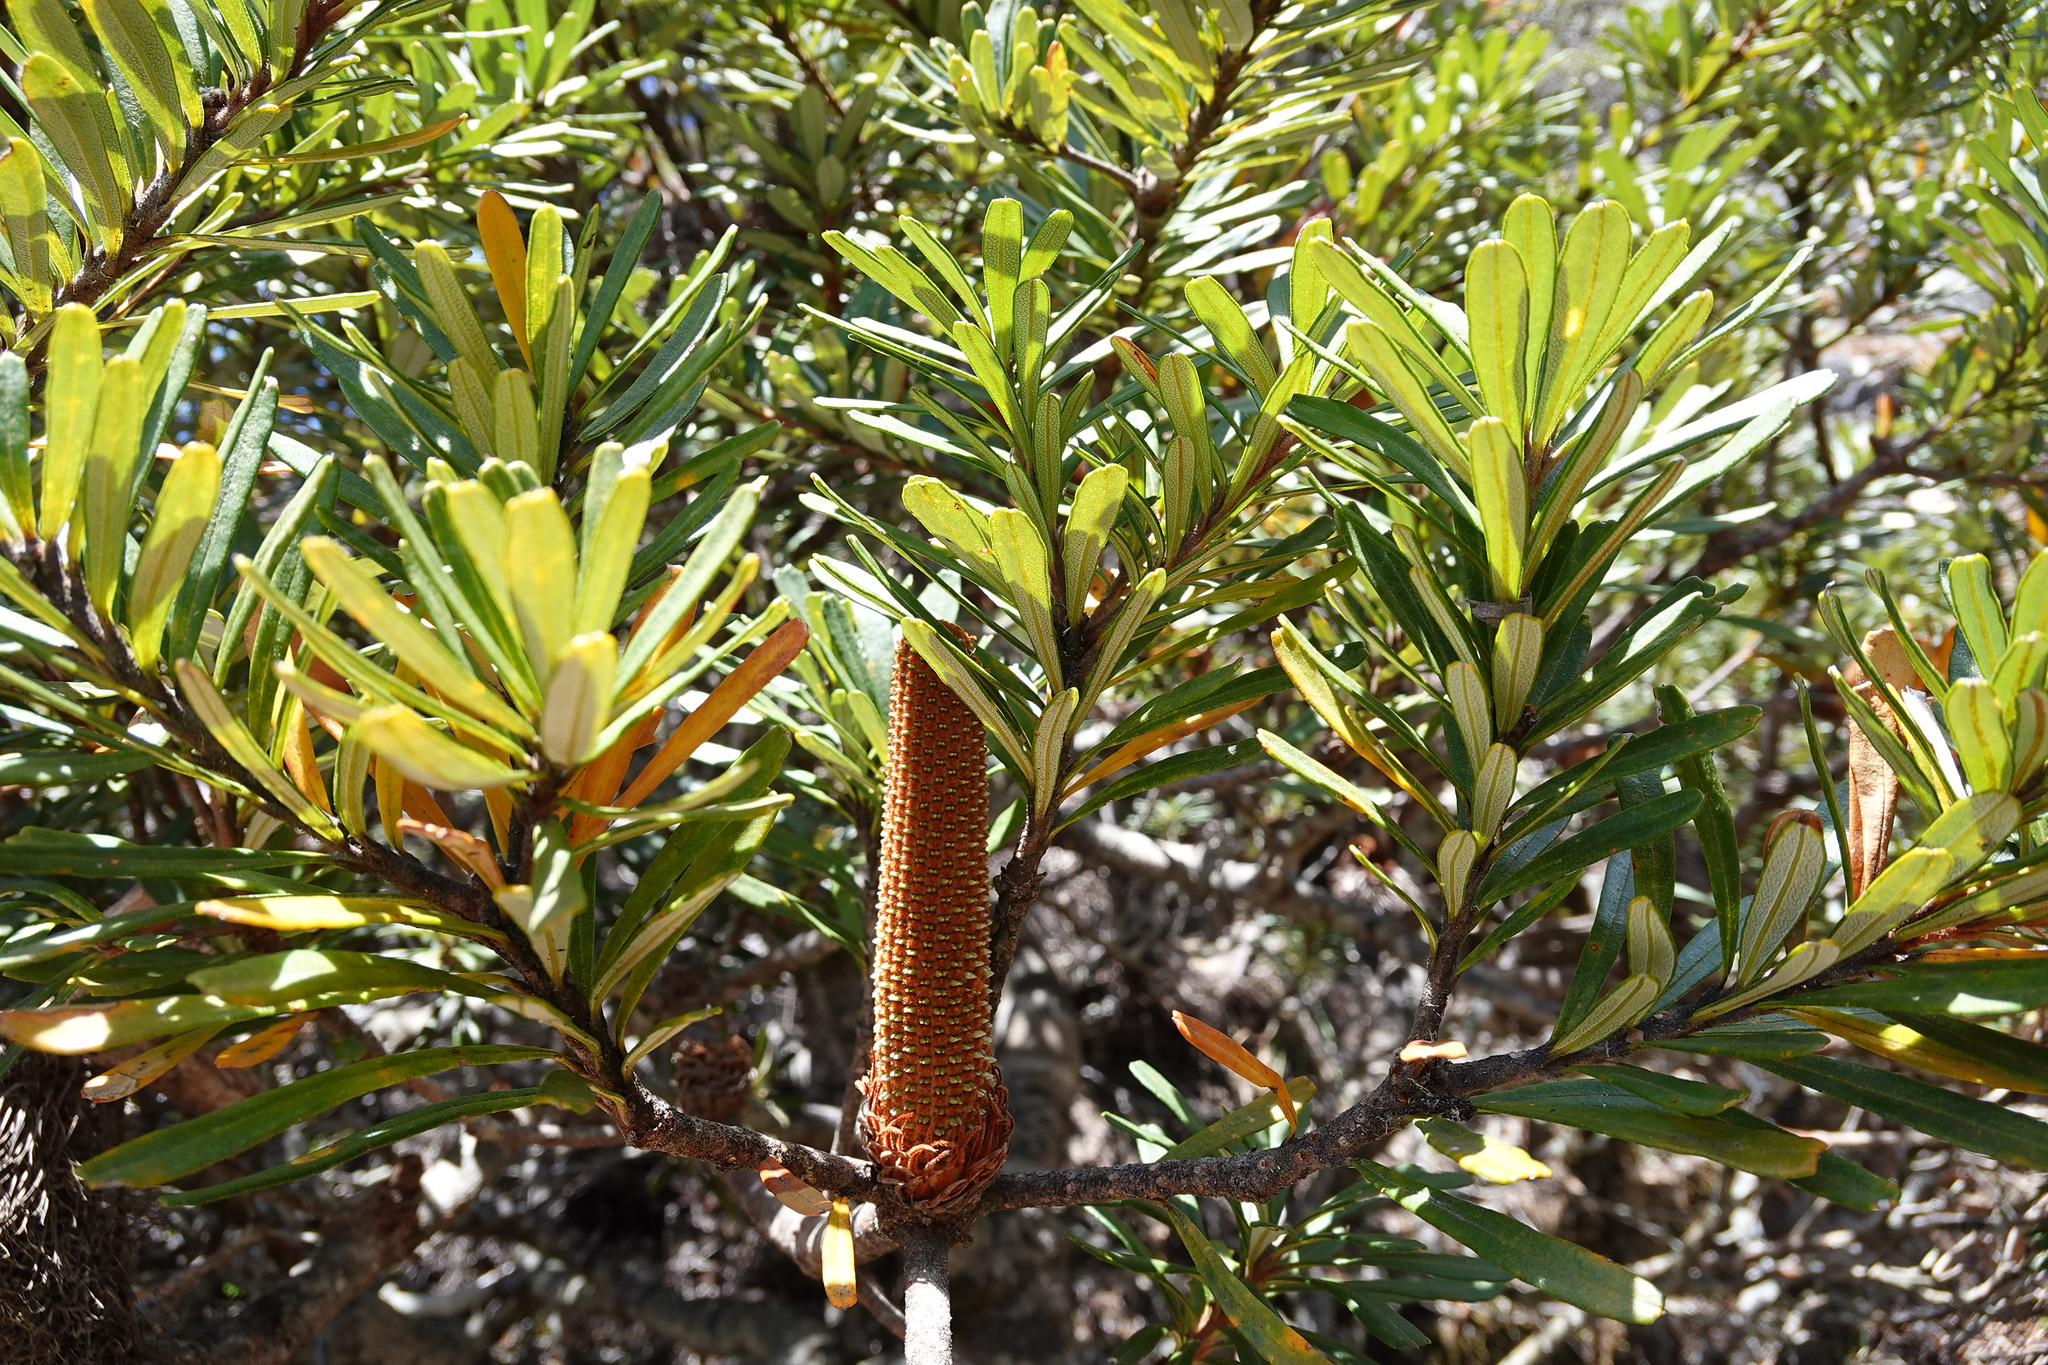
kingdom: Plantae
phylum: Tracheophyta
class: Magnoliopsida
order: Proteales
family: Proteaceae
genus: Banksia
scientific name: Banksia marginata
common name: Silver banksia
